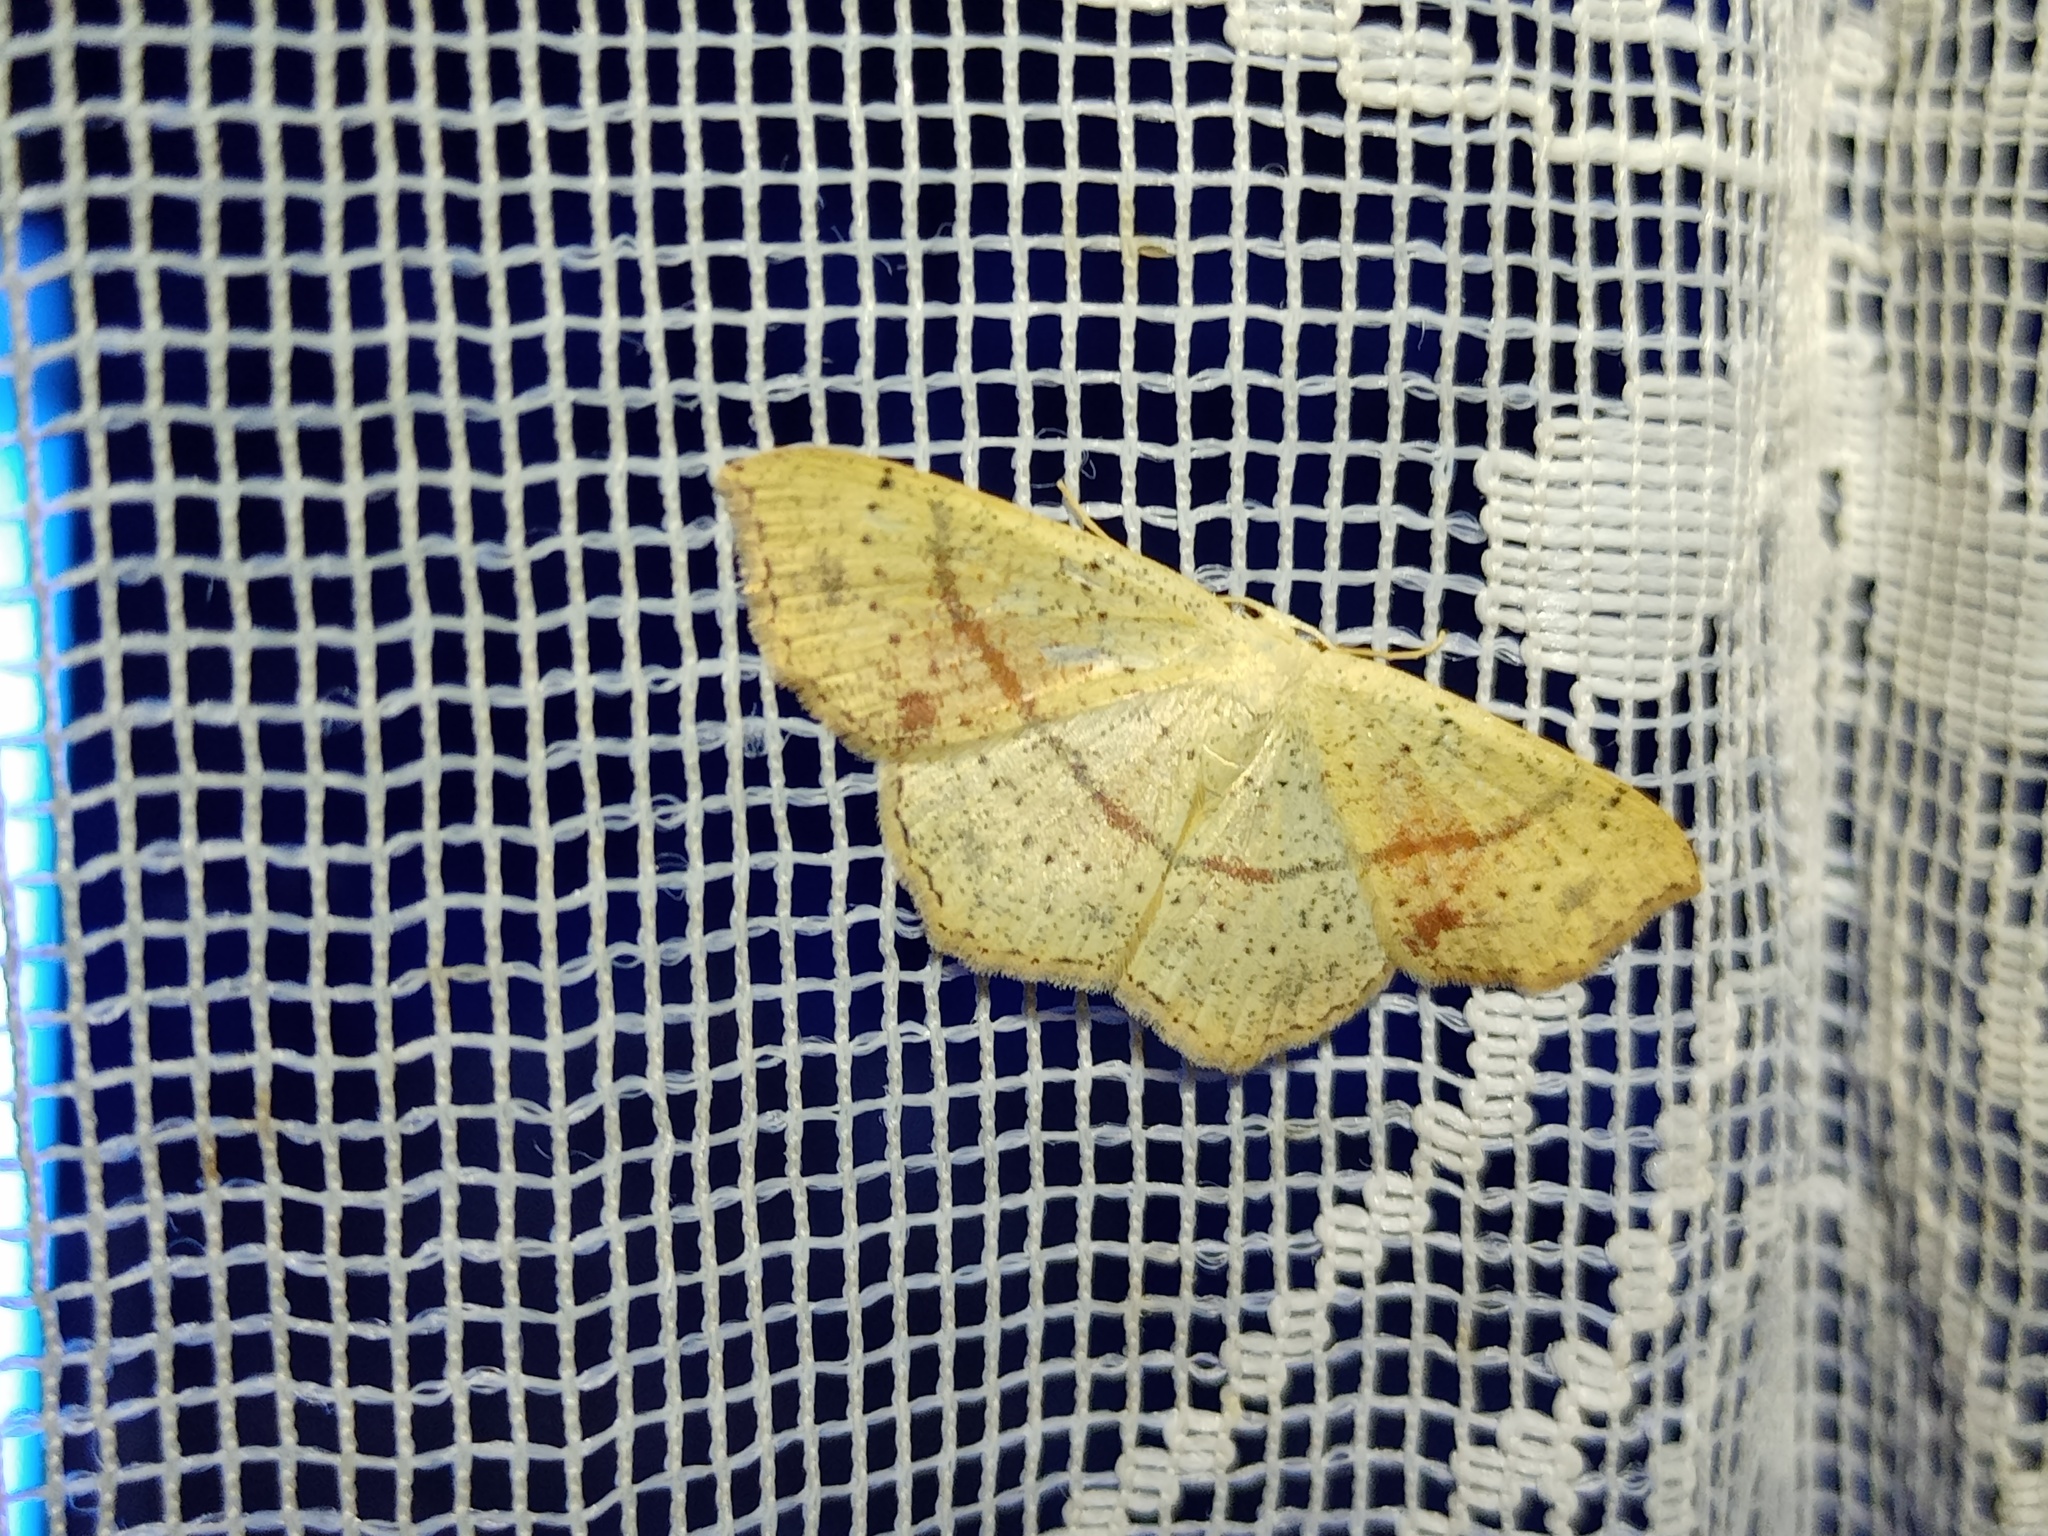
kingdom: Animalia
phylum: Arthropoda
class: Insecta
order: Lepidoptera
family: Geometridae
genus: Cyclophora
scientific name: Cyclophora punctaria
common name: Maiden's blush
